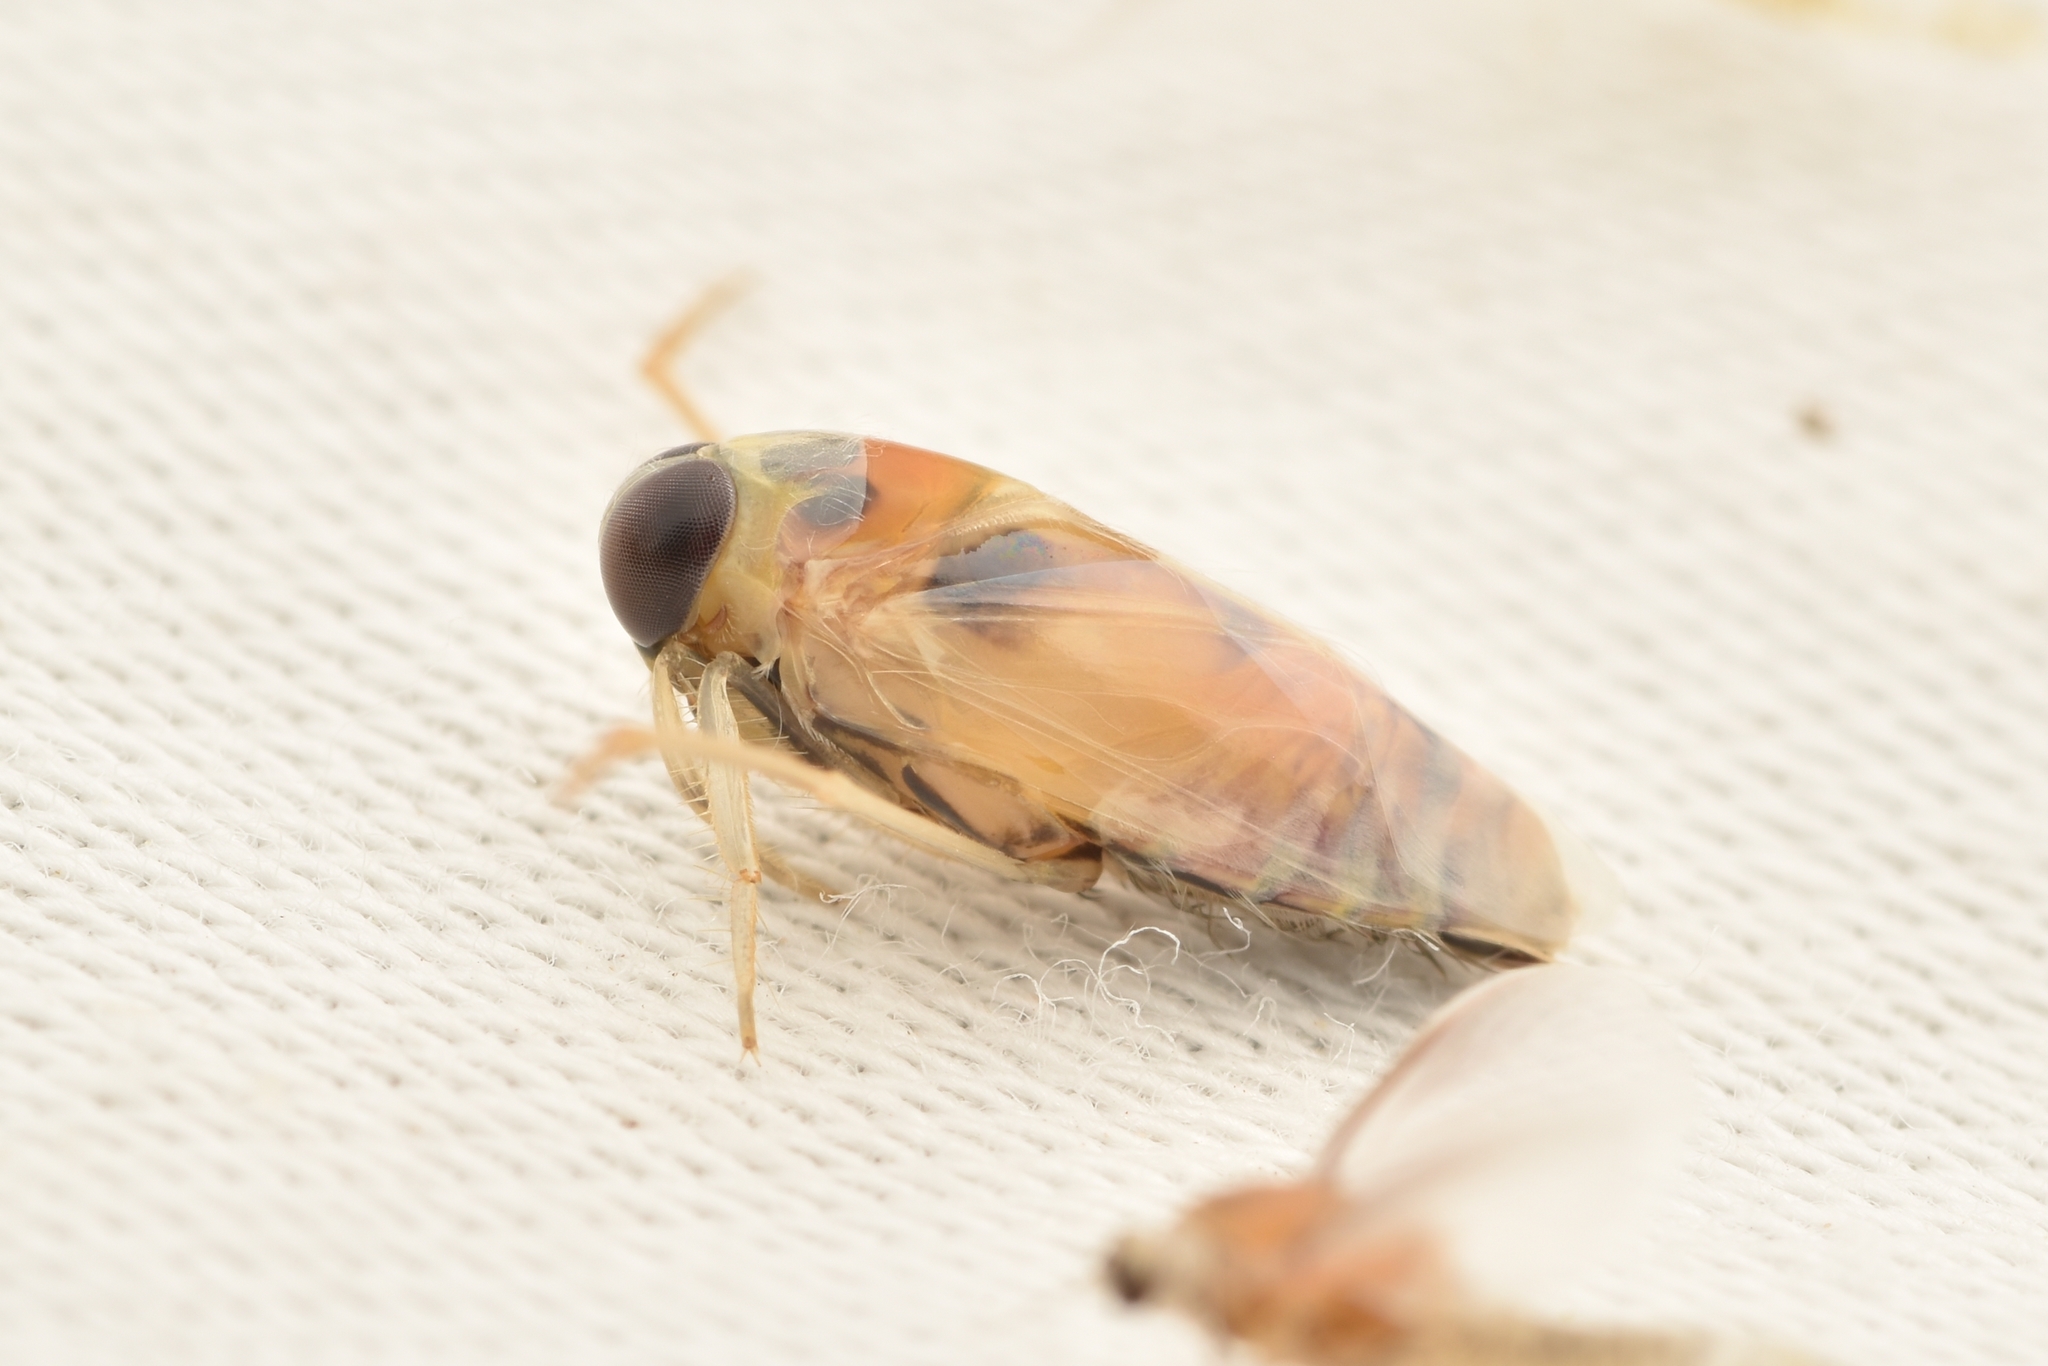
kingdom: Animalia
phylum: Arthropoda
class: Insecta
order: Hemiptera
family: Notonectidae
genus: Buenoa
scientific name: Buenoa
